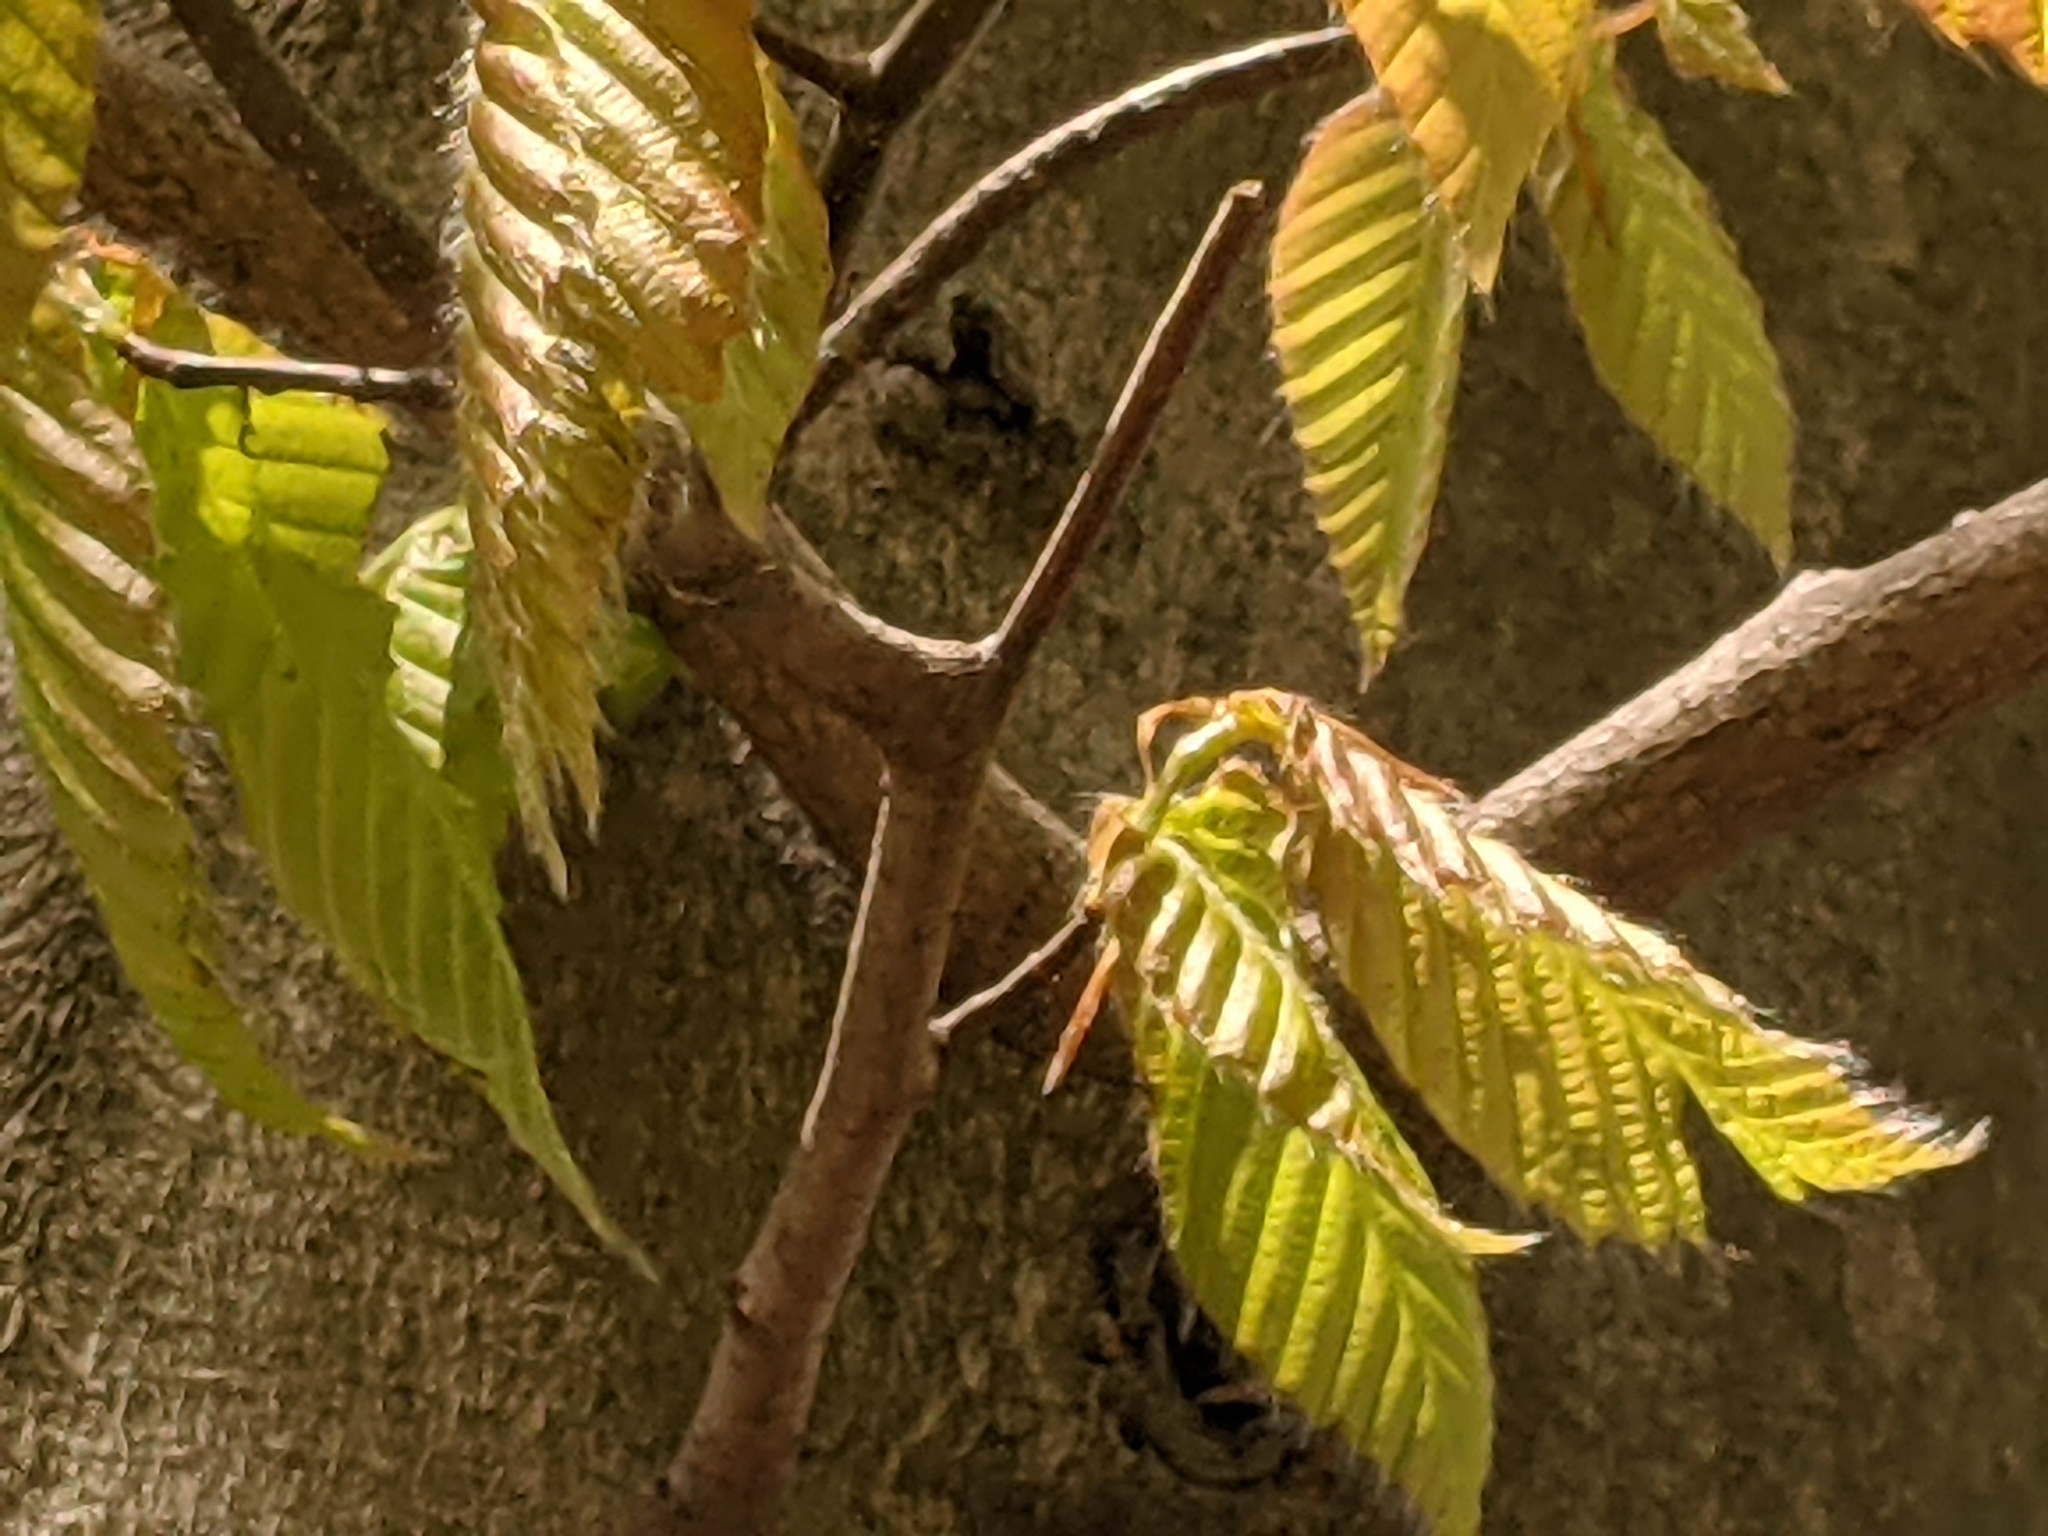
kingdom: Plantae
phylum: Tracheophyta
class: Magnoliopsida
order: Fagales
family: Fagaceae
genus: Fagus
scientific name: Fagus grandifolia
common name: American beech
